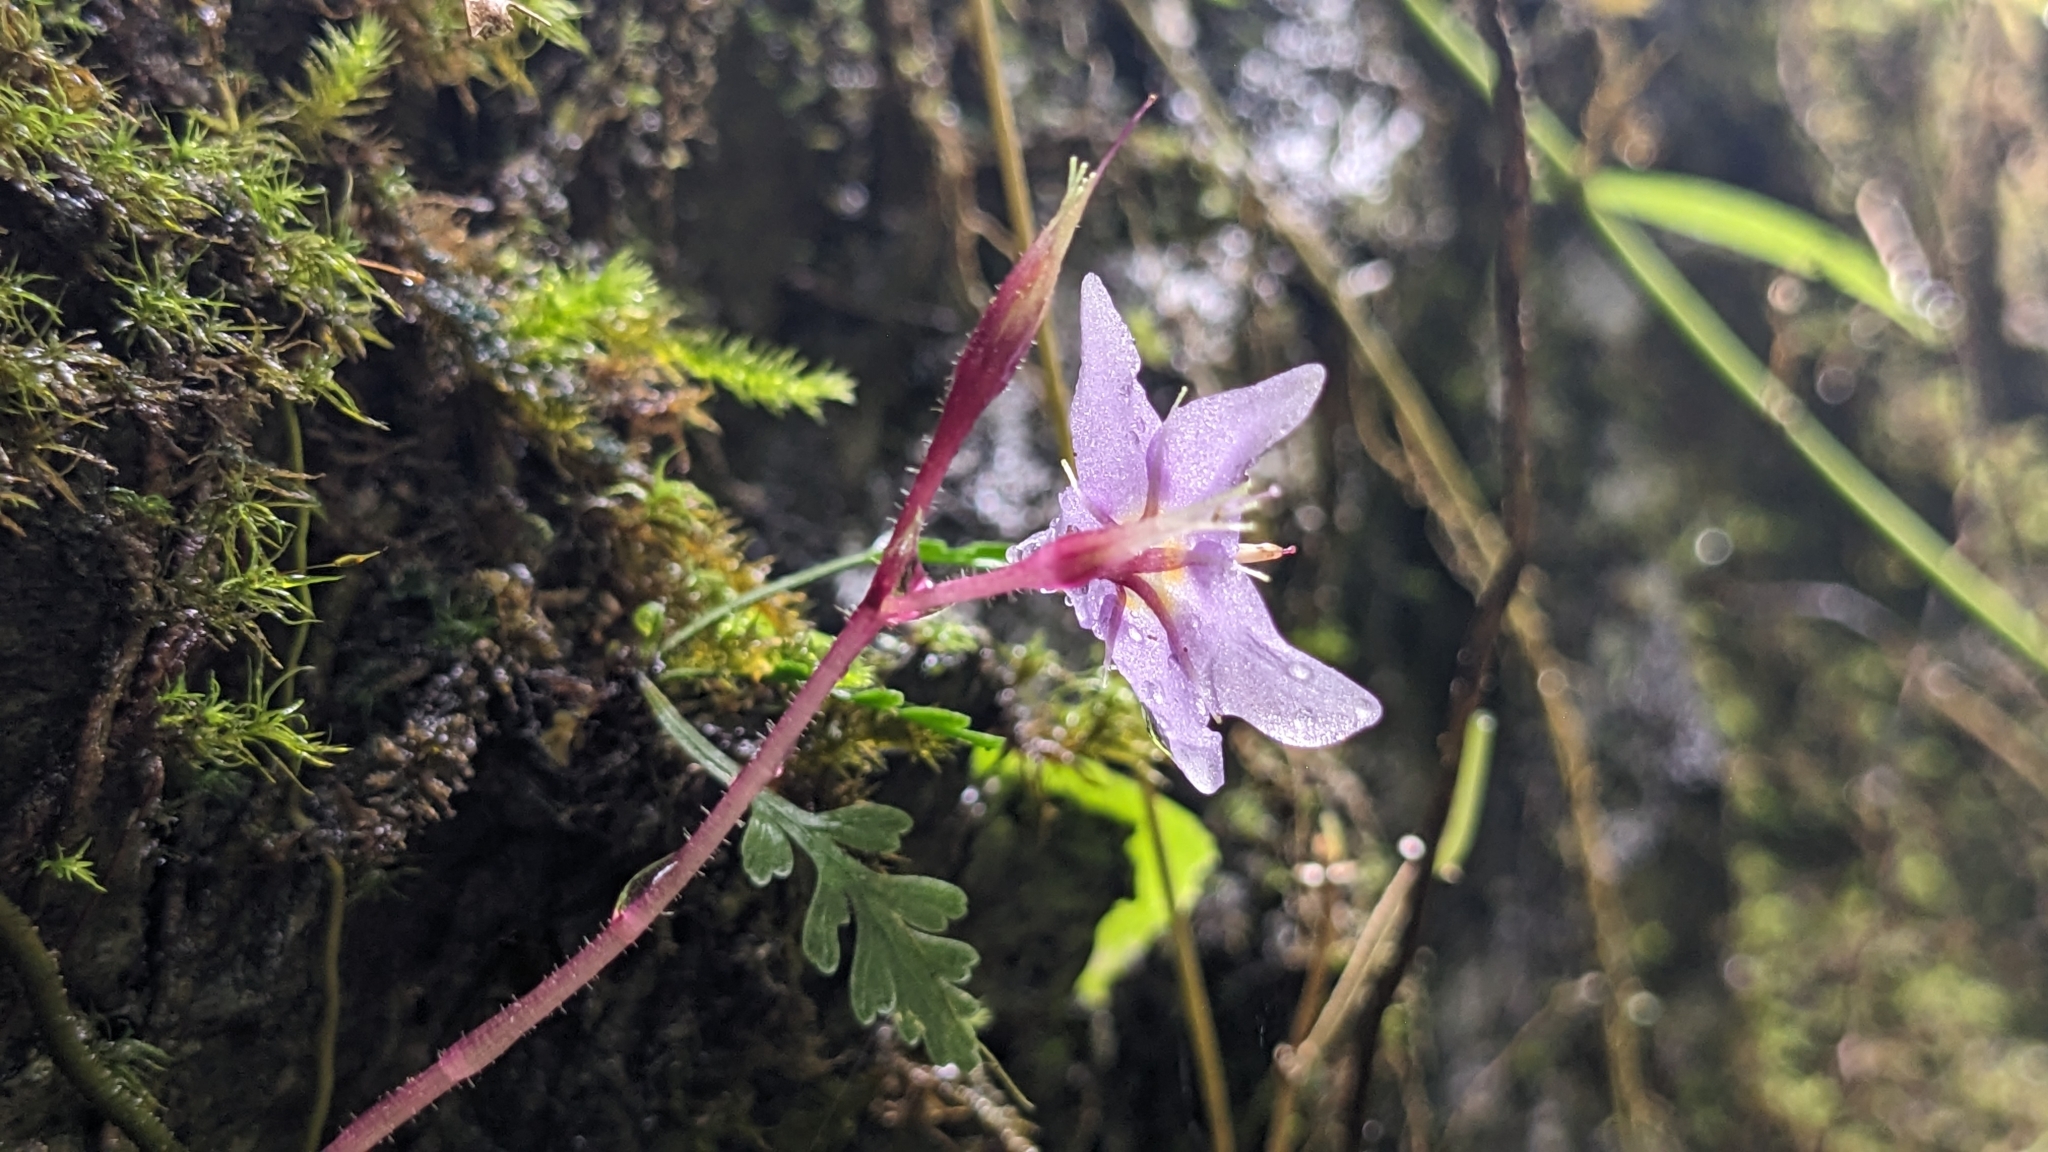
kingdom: Plantae
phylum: Tracheophyta
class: Magnoliopsida
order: Lamiales
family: Gesneriaceae
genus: Conandron
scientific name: Conandron ramondioides
